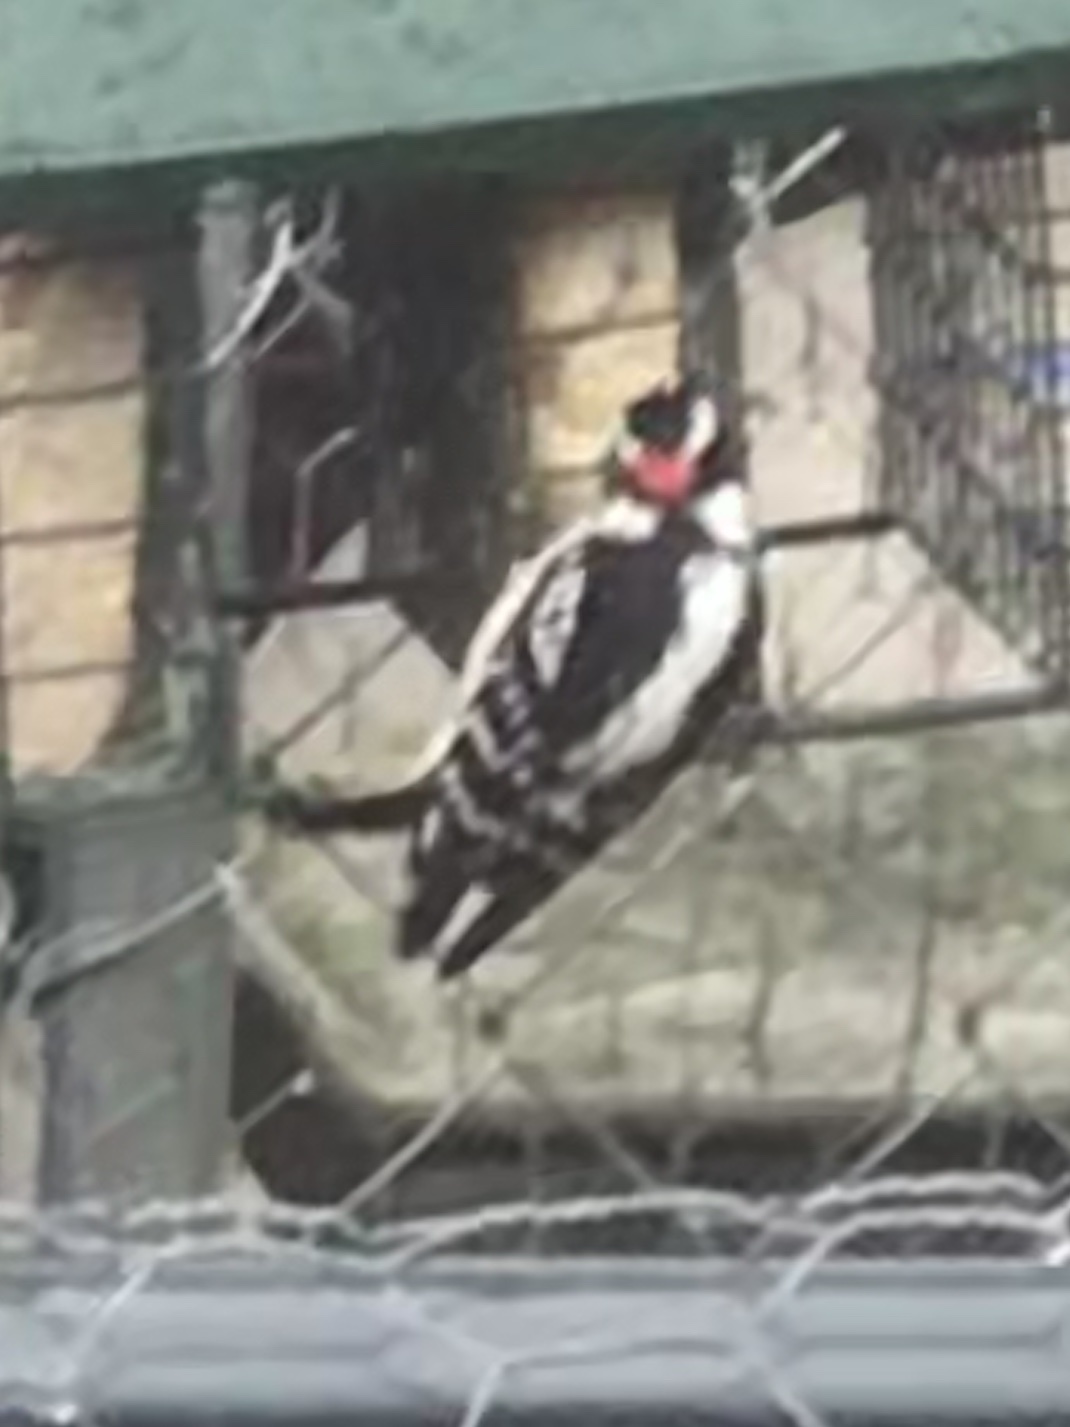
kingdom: Animalia
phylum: Chordata
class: Aves
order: Piciformes
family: Picidae
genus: Dryobates
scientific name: Dryobates pubescens
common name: Downy woodpecker
